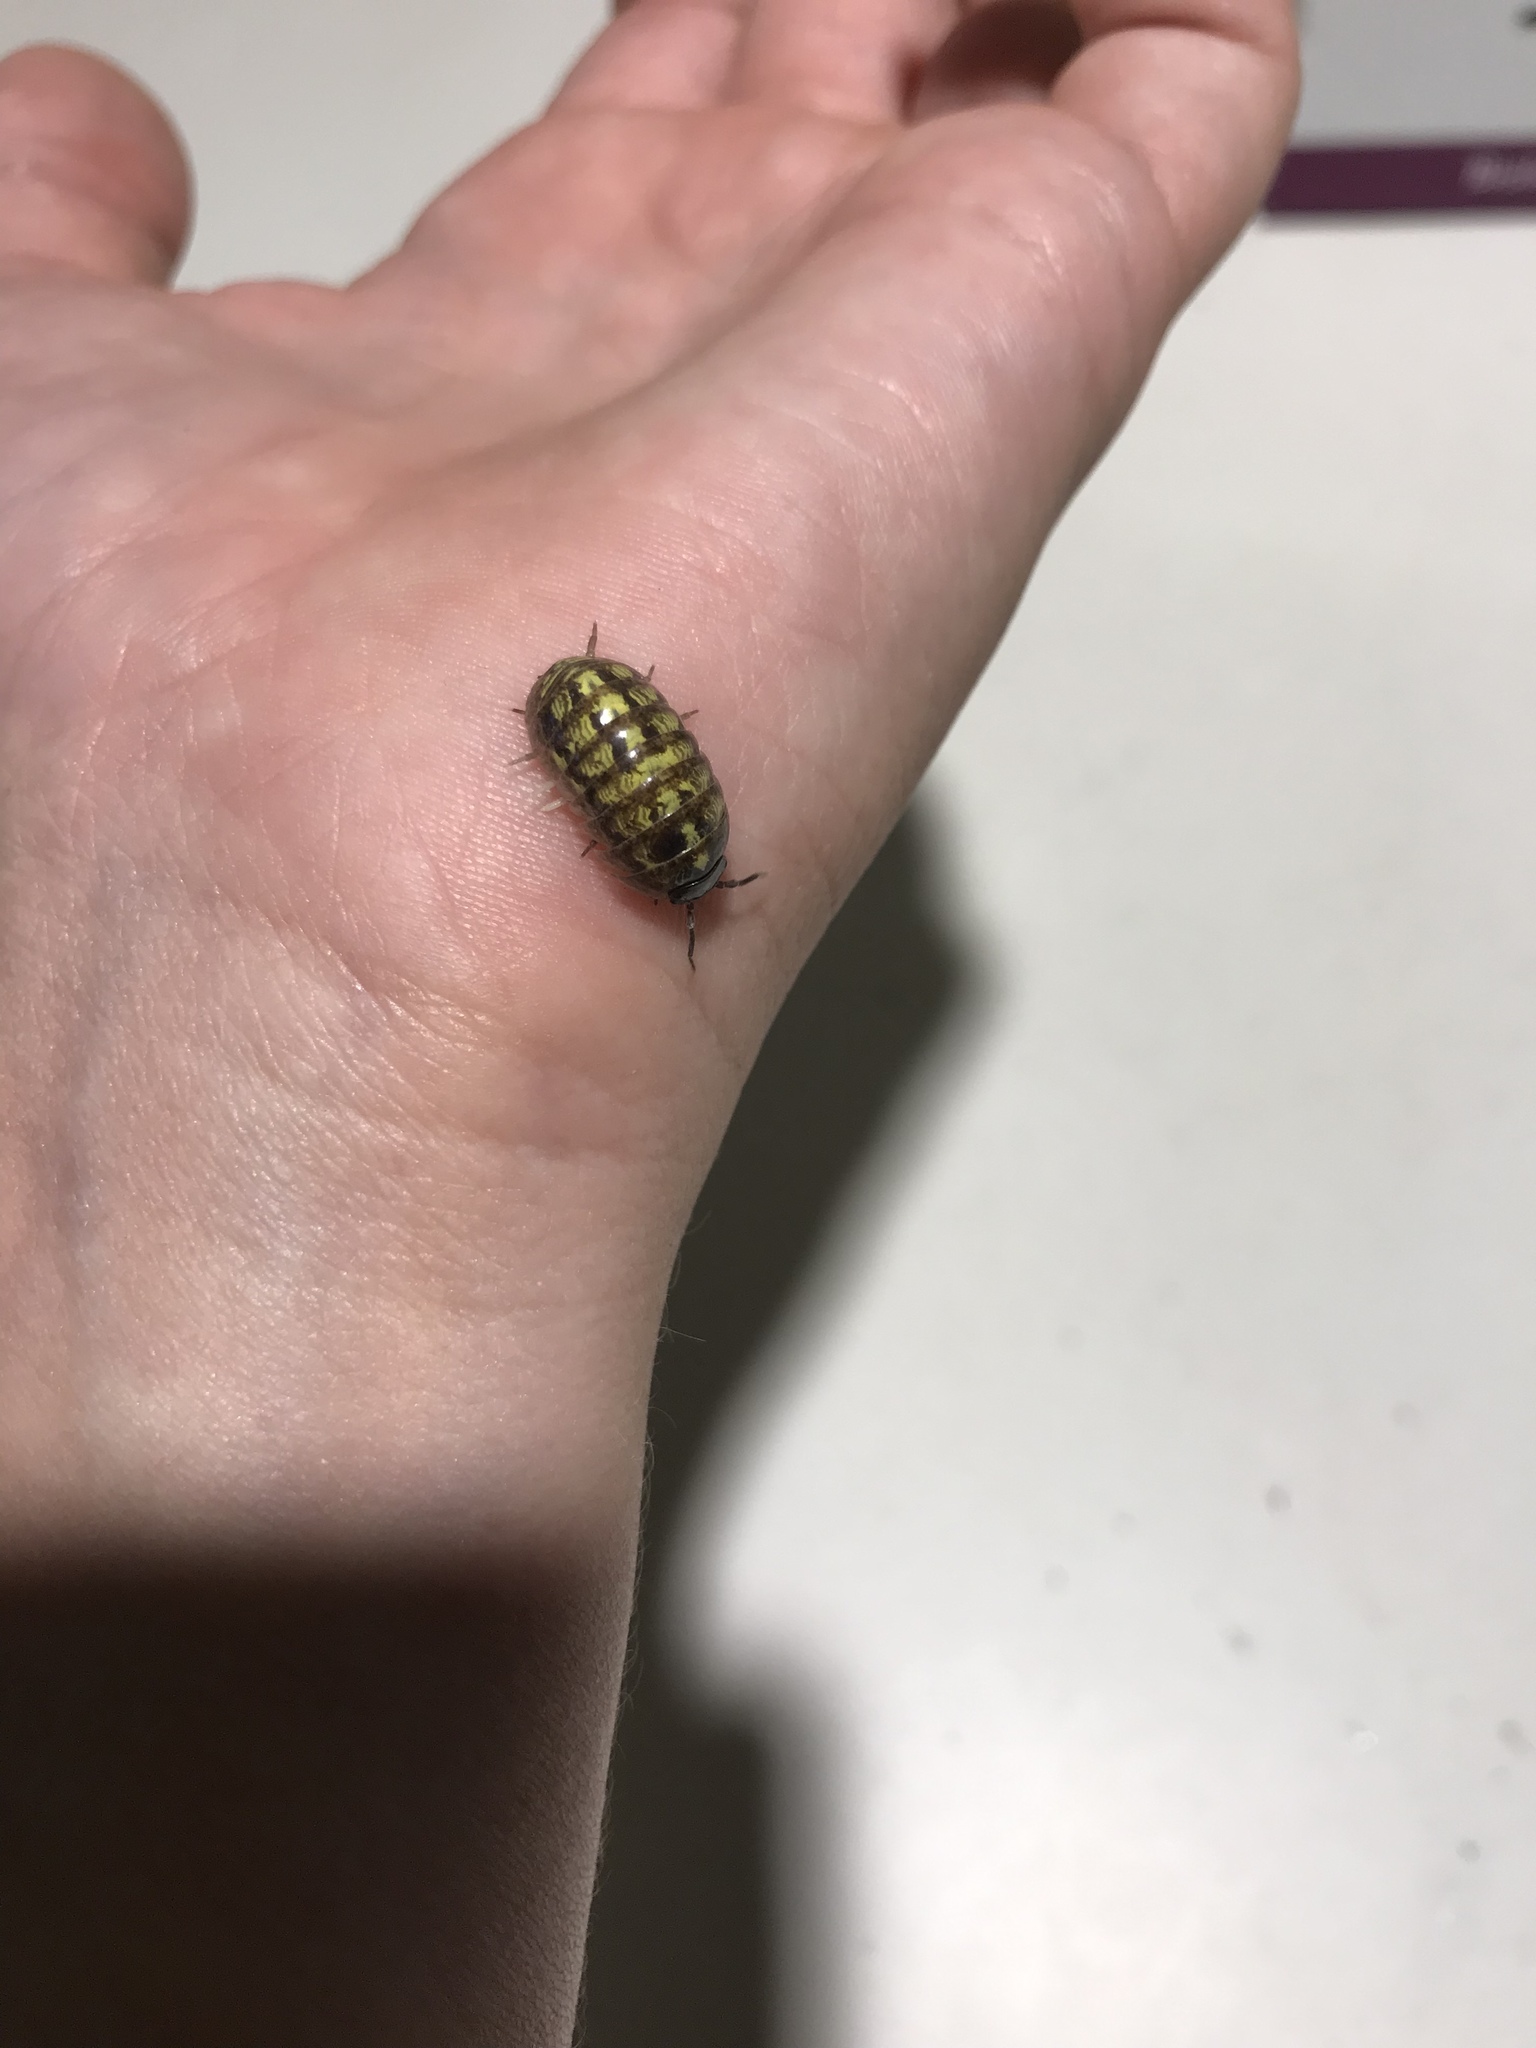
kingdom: Animalia
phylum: Arthropoda
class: Malacostraca
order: Isopoda
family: Armadillidiidae
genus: Armadillidium
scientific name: Armadillidium vulgare
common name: Common pill woodlouse
